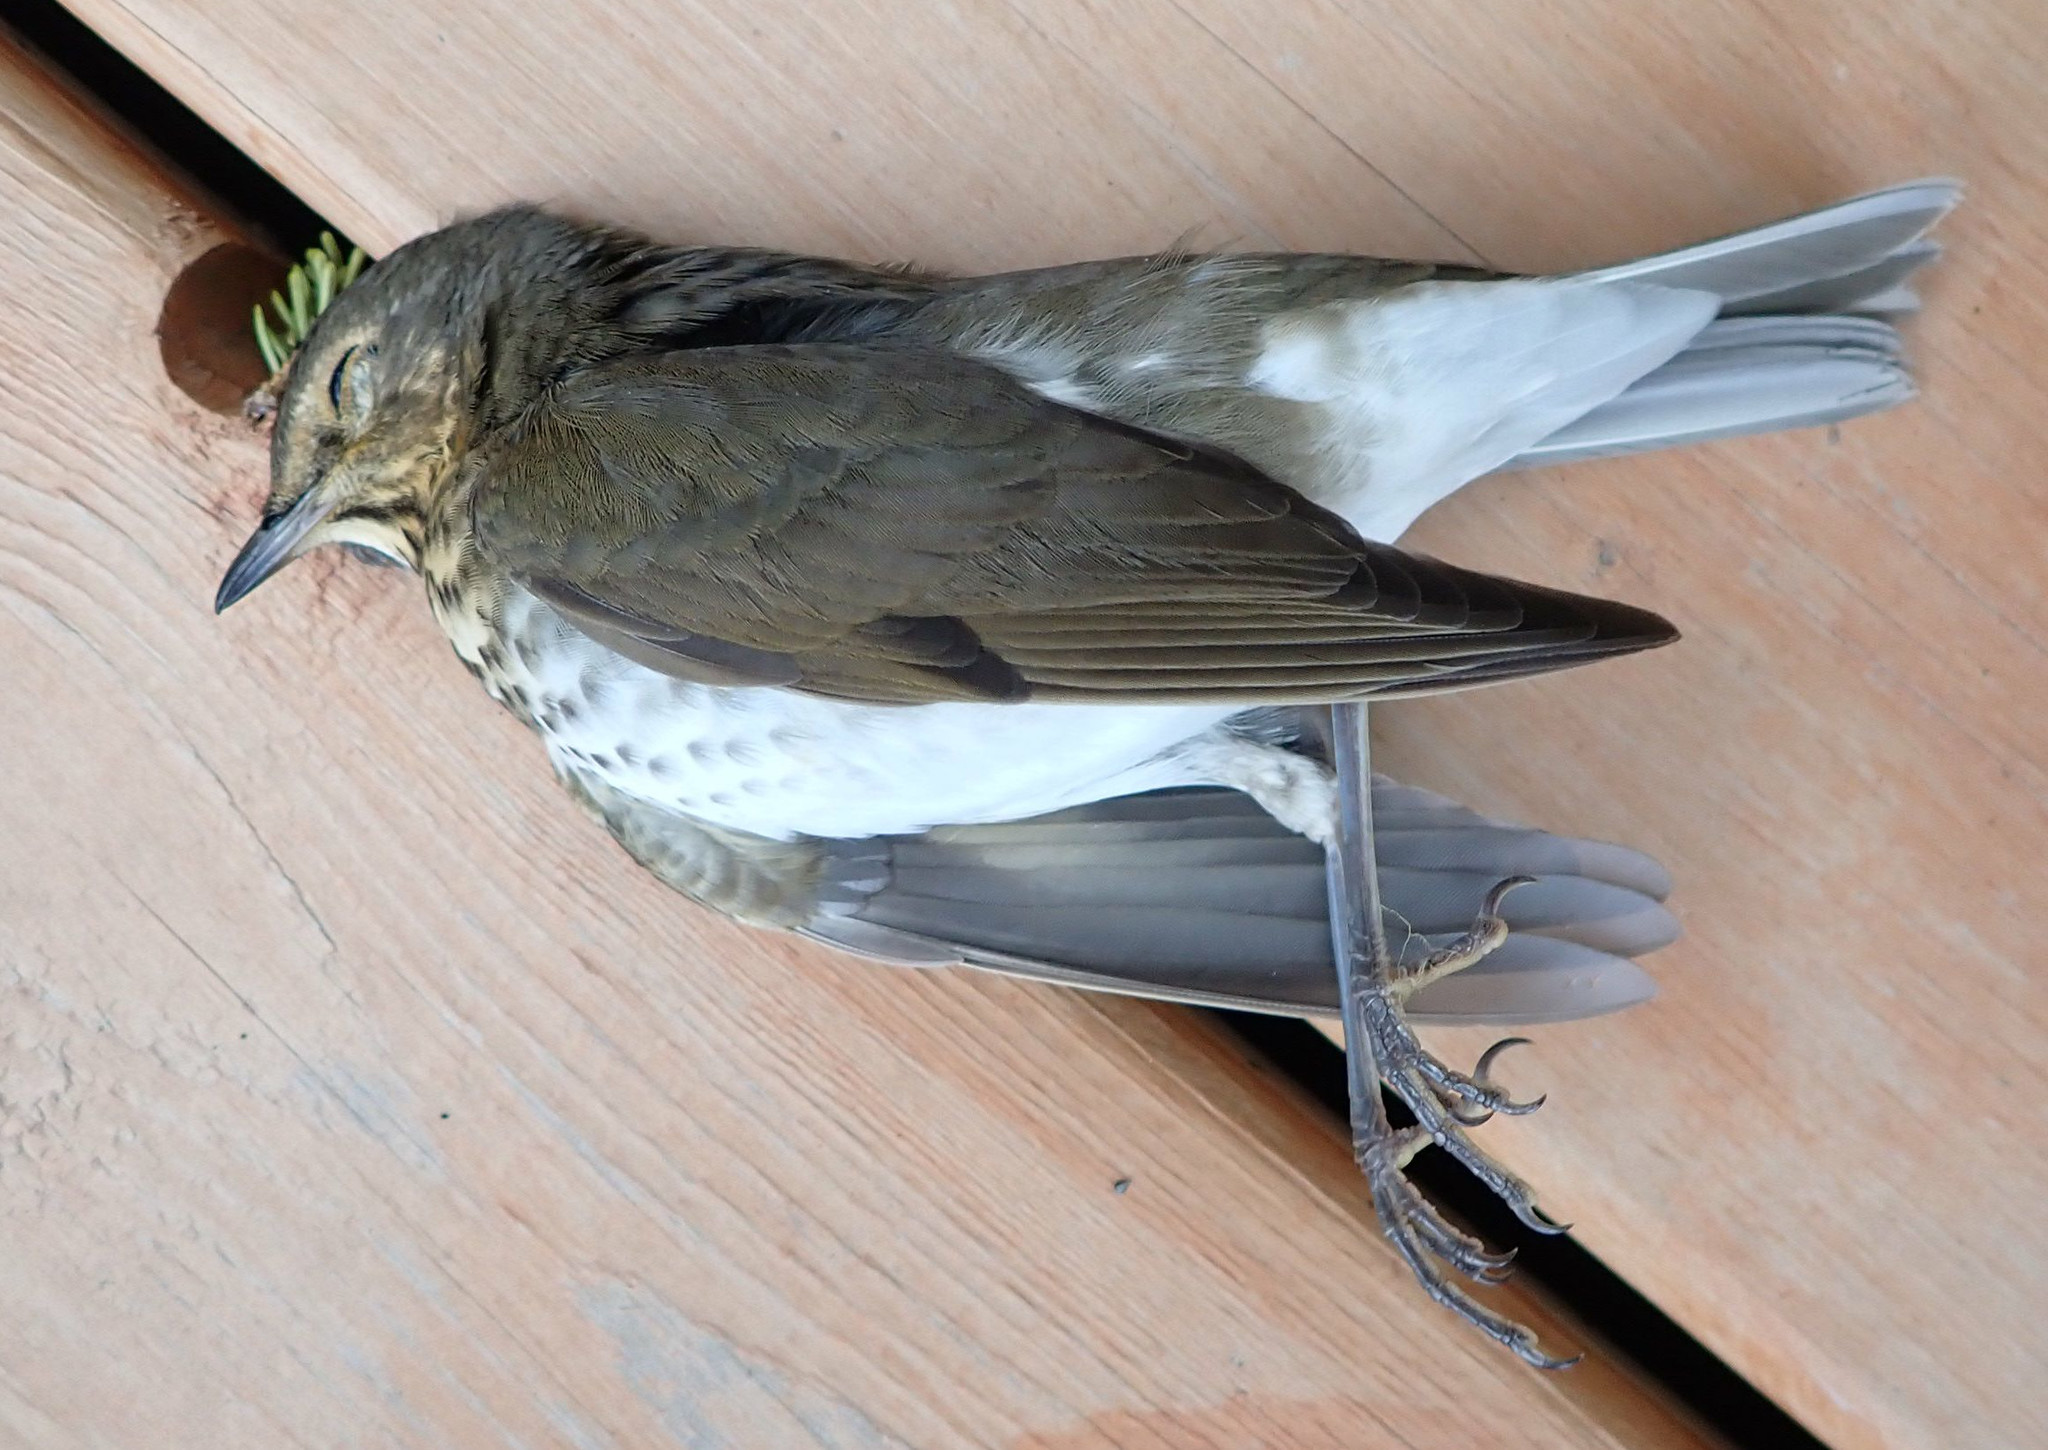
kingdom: Animalia
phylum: Chordata
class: Aves
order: Passeriformes
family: Turdidae
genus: Catharus
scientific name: Catharus ustulatus
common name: Swainson's thrush
